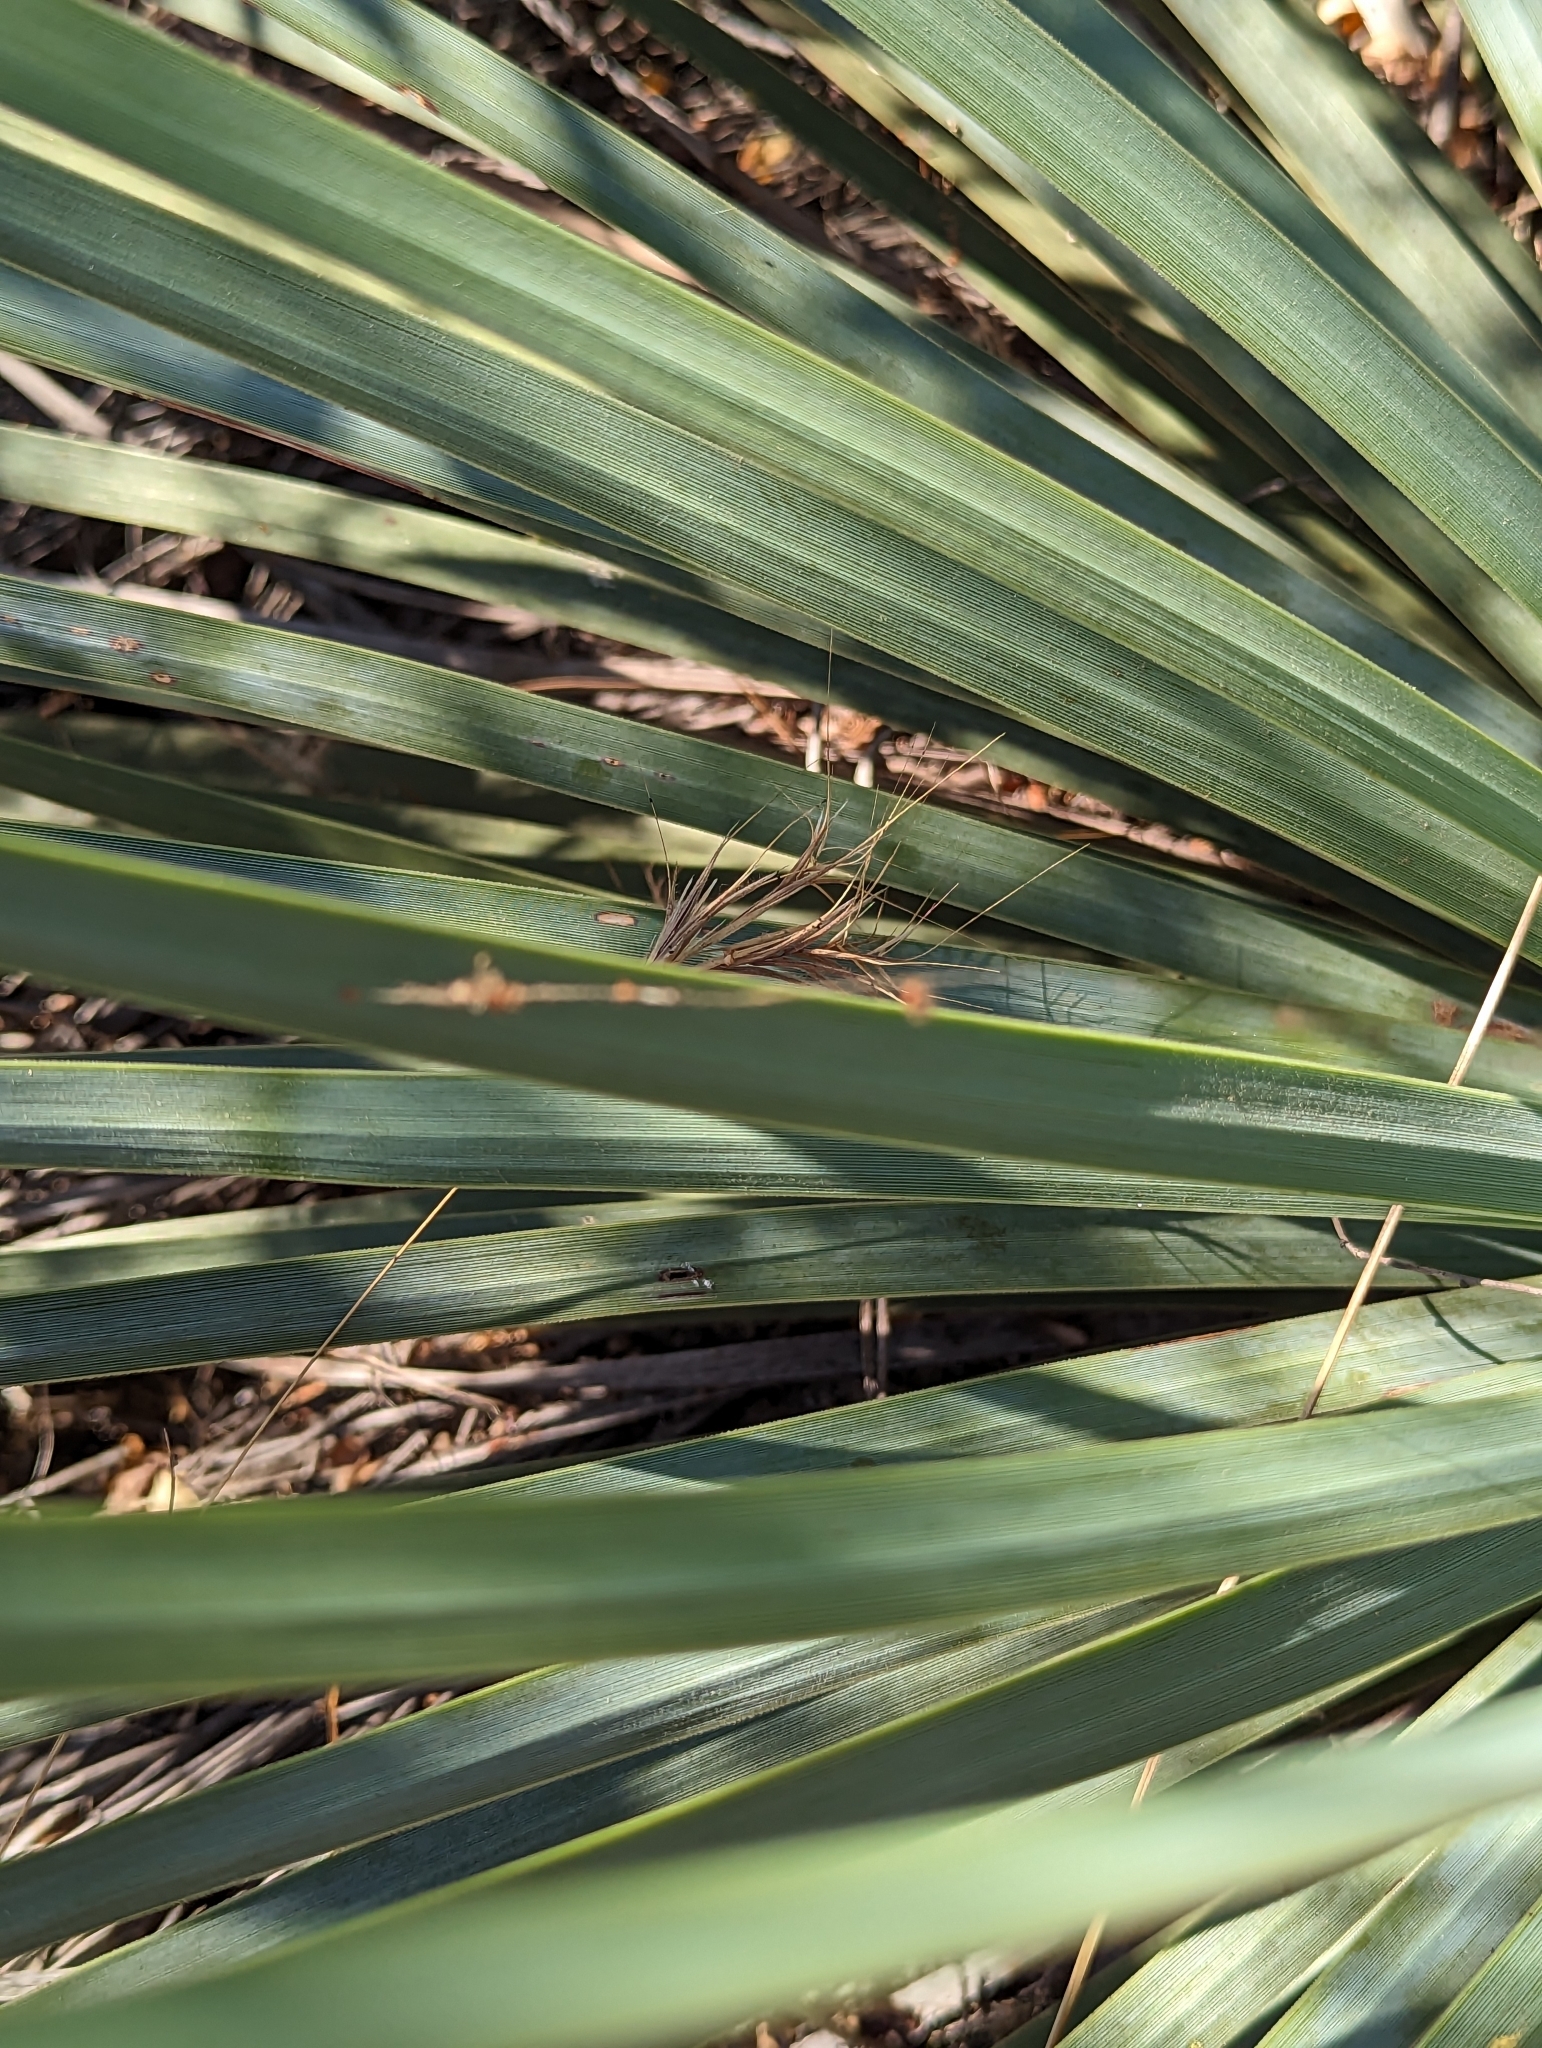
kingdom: Plantae
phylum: Tracheophyta
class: Liliopsida
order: Asparagales
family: Asparagaceae
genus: Hesperoyucca
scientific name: Hesperoyucca whipplei
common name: Our lord's-candle
